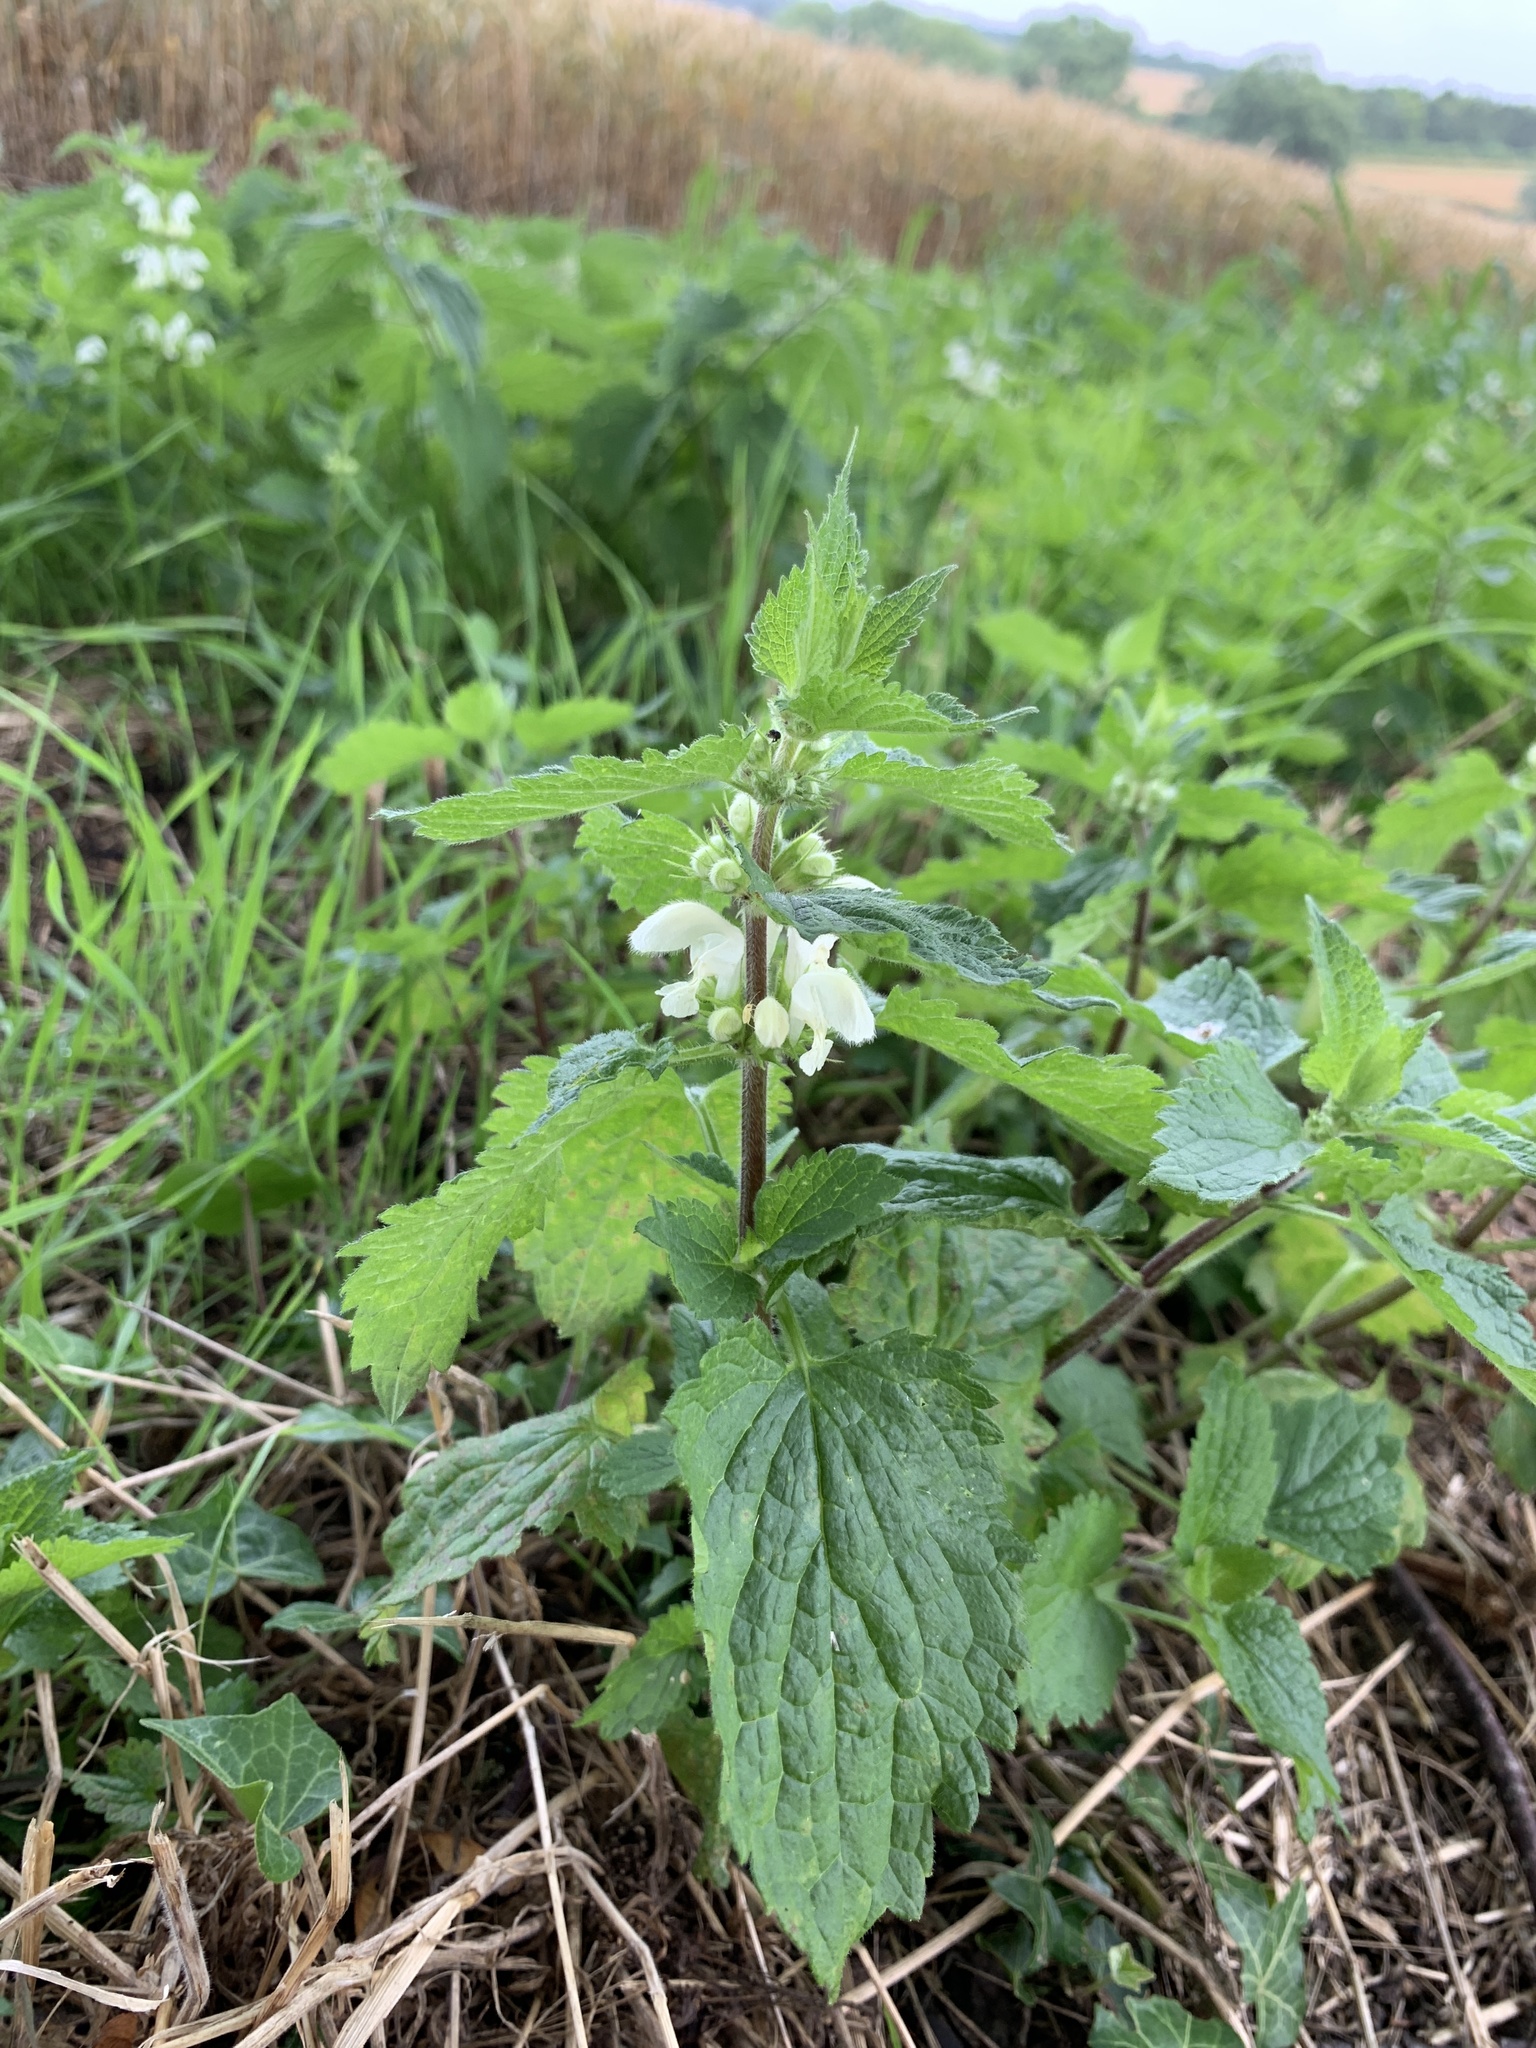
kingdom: Plantae
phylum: Tracheophyta
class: Magnoliopsida
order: Lamiales
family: Lamiaceae
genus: Lamium
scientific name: Lamium album
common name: White dead-nettle
